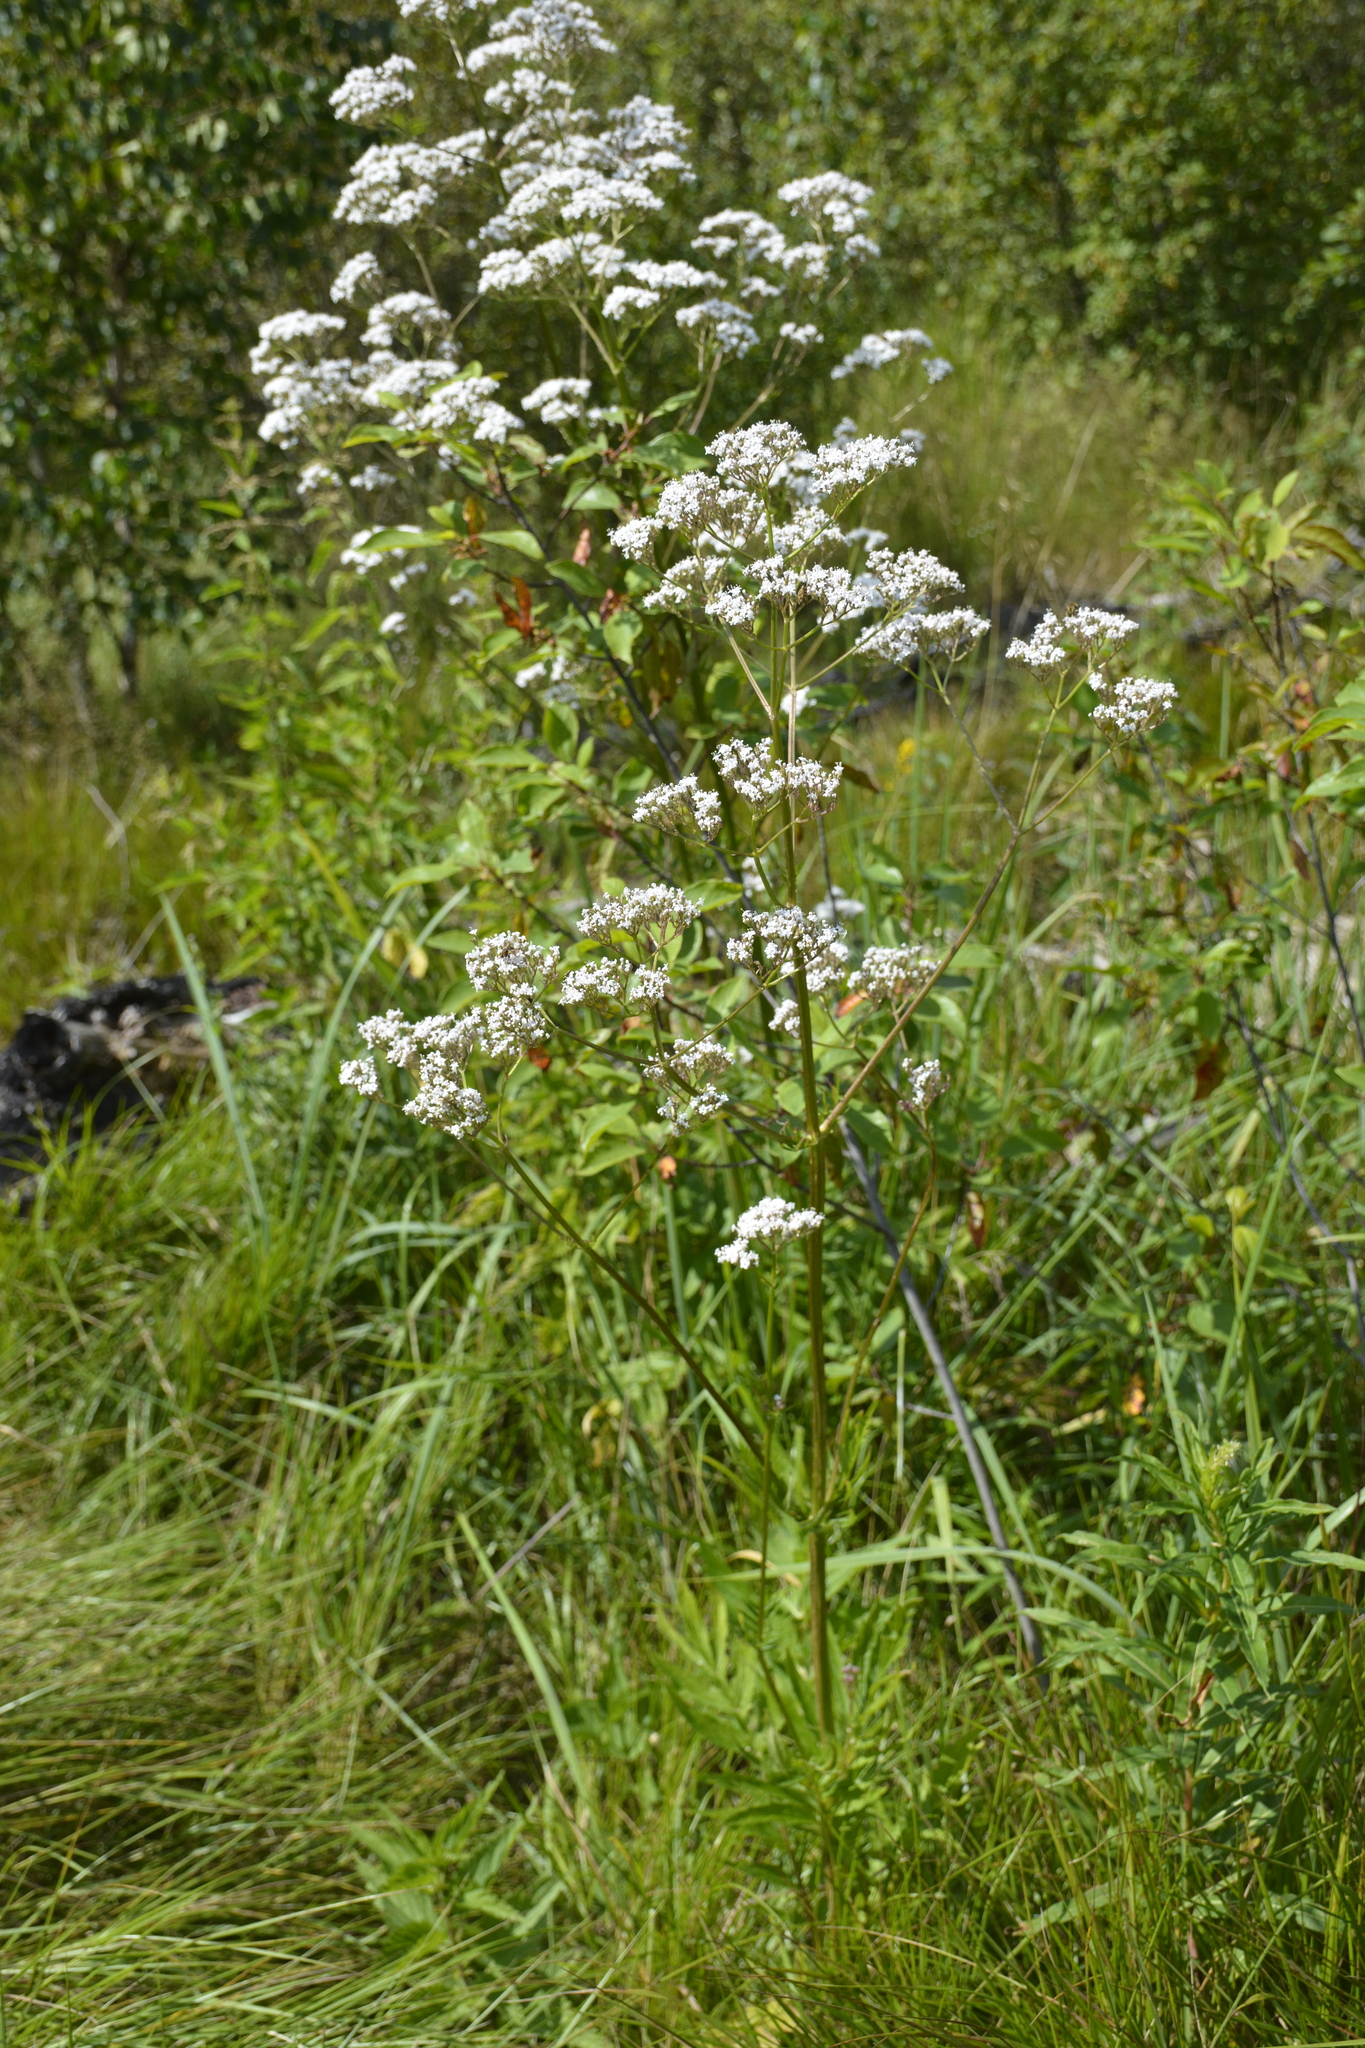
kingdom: Plantae
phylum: Tracheophyta
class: Magnoliopsida
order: Dipsacales
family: Caprifoliaceae
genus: Valeriana
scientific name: Valeriana officinalis
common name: Common valerian
